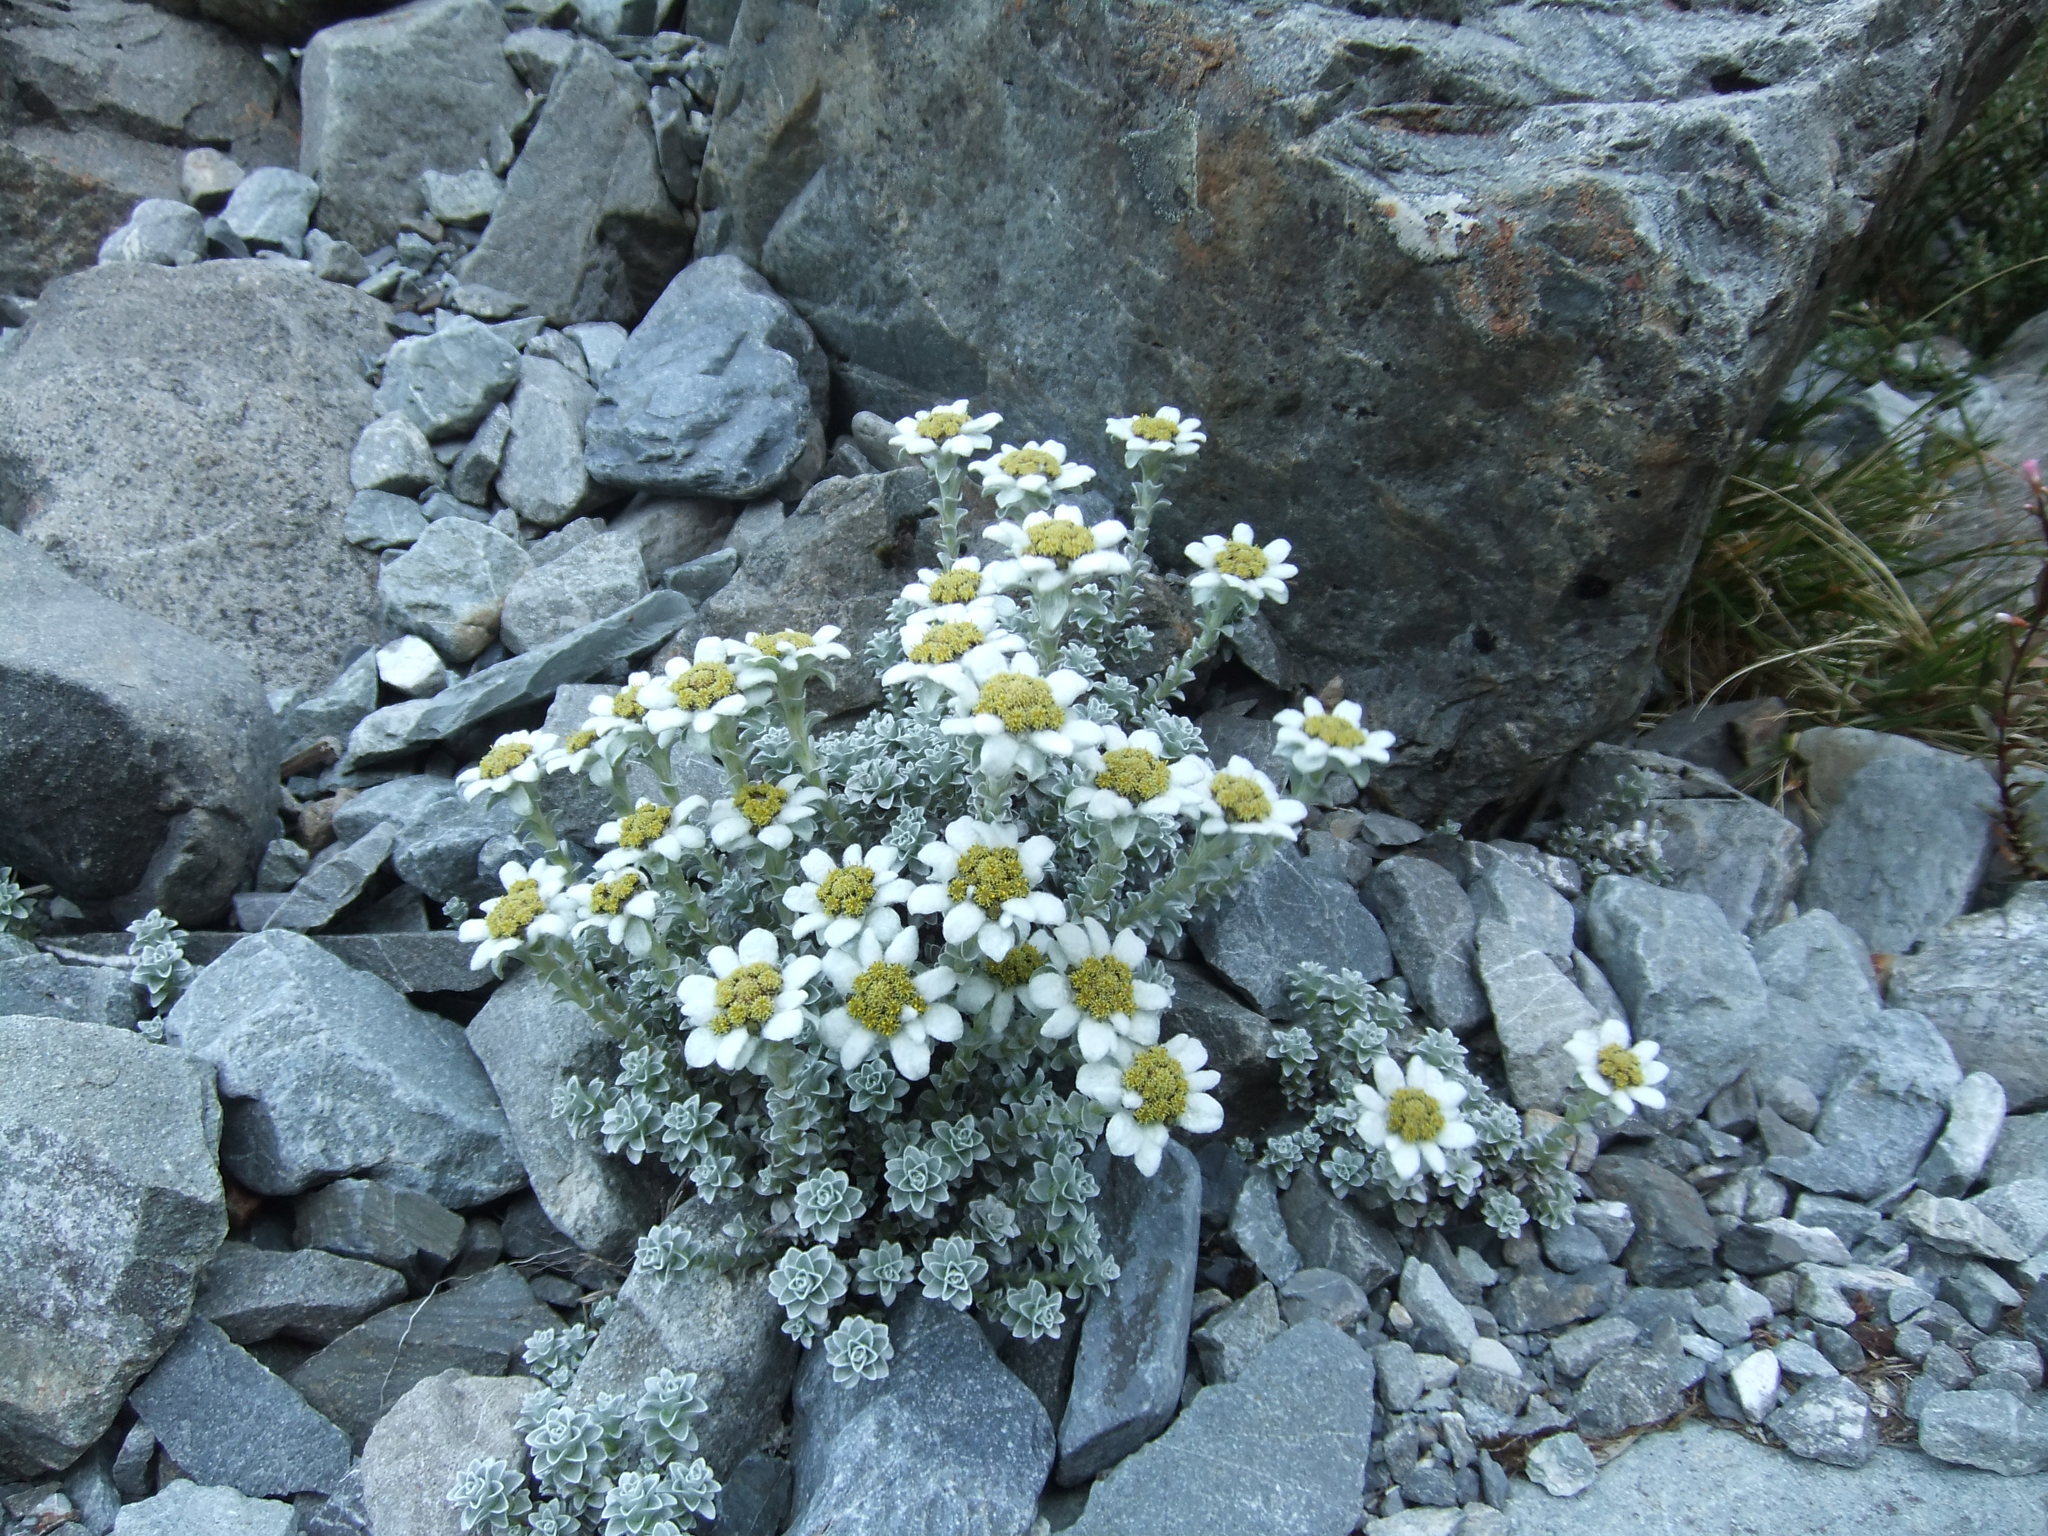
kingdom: Plantae
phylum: Tracheophyta
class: Magnoliopsida
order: Asterales
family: Asteraceae
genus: Leucogenes
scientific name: Leucogenes grandiceps
